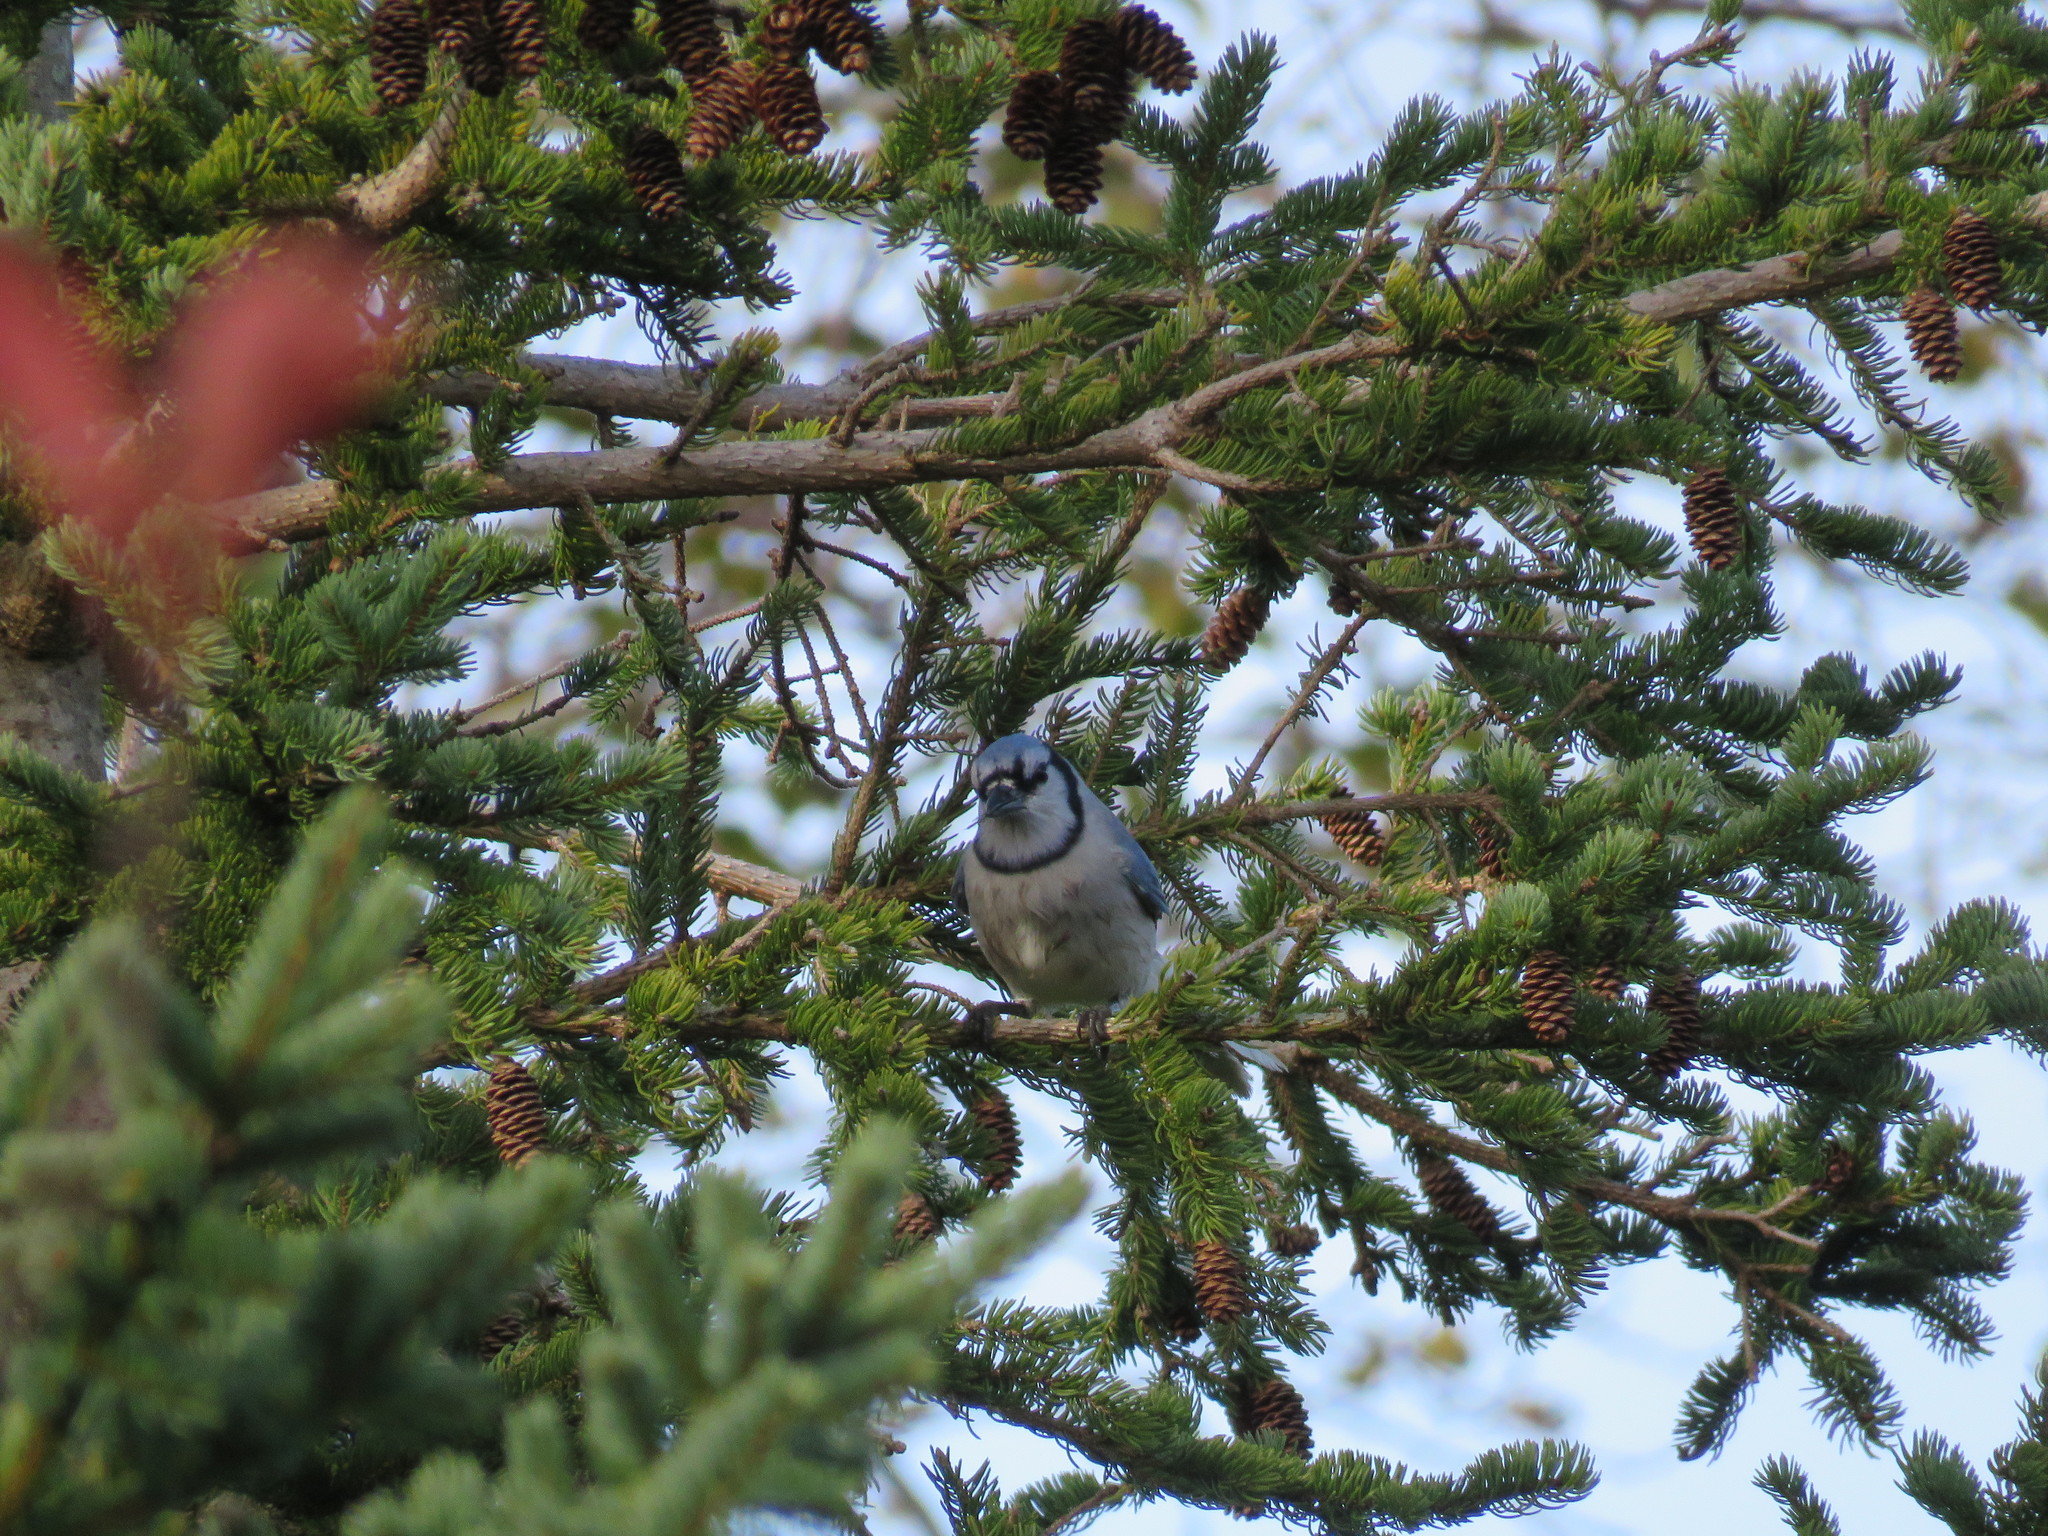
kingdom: Animalia
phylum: Chordata
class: Aves
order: Passeriformes
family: Corvidae
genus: Cyanocitta
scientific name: Cyanocitta cristata
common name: Blue jay
